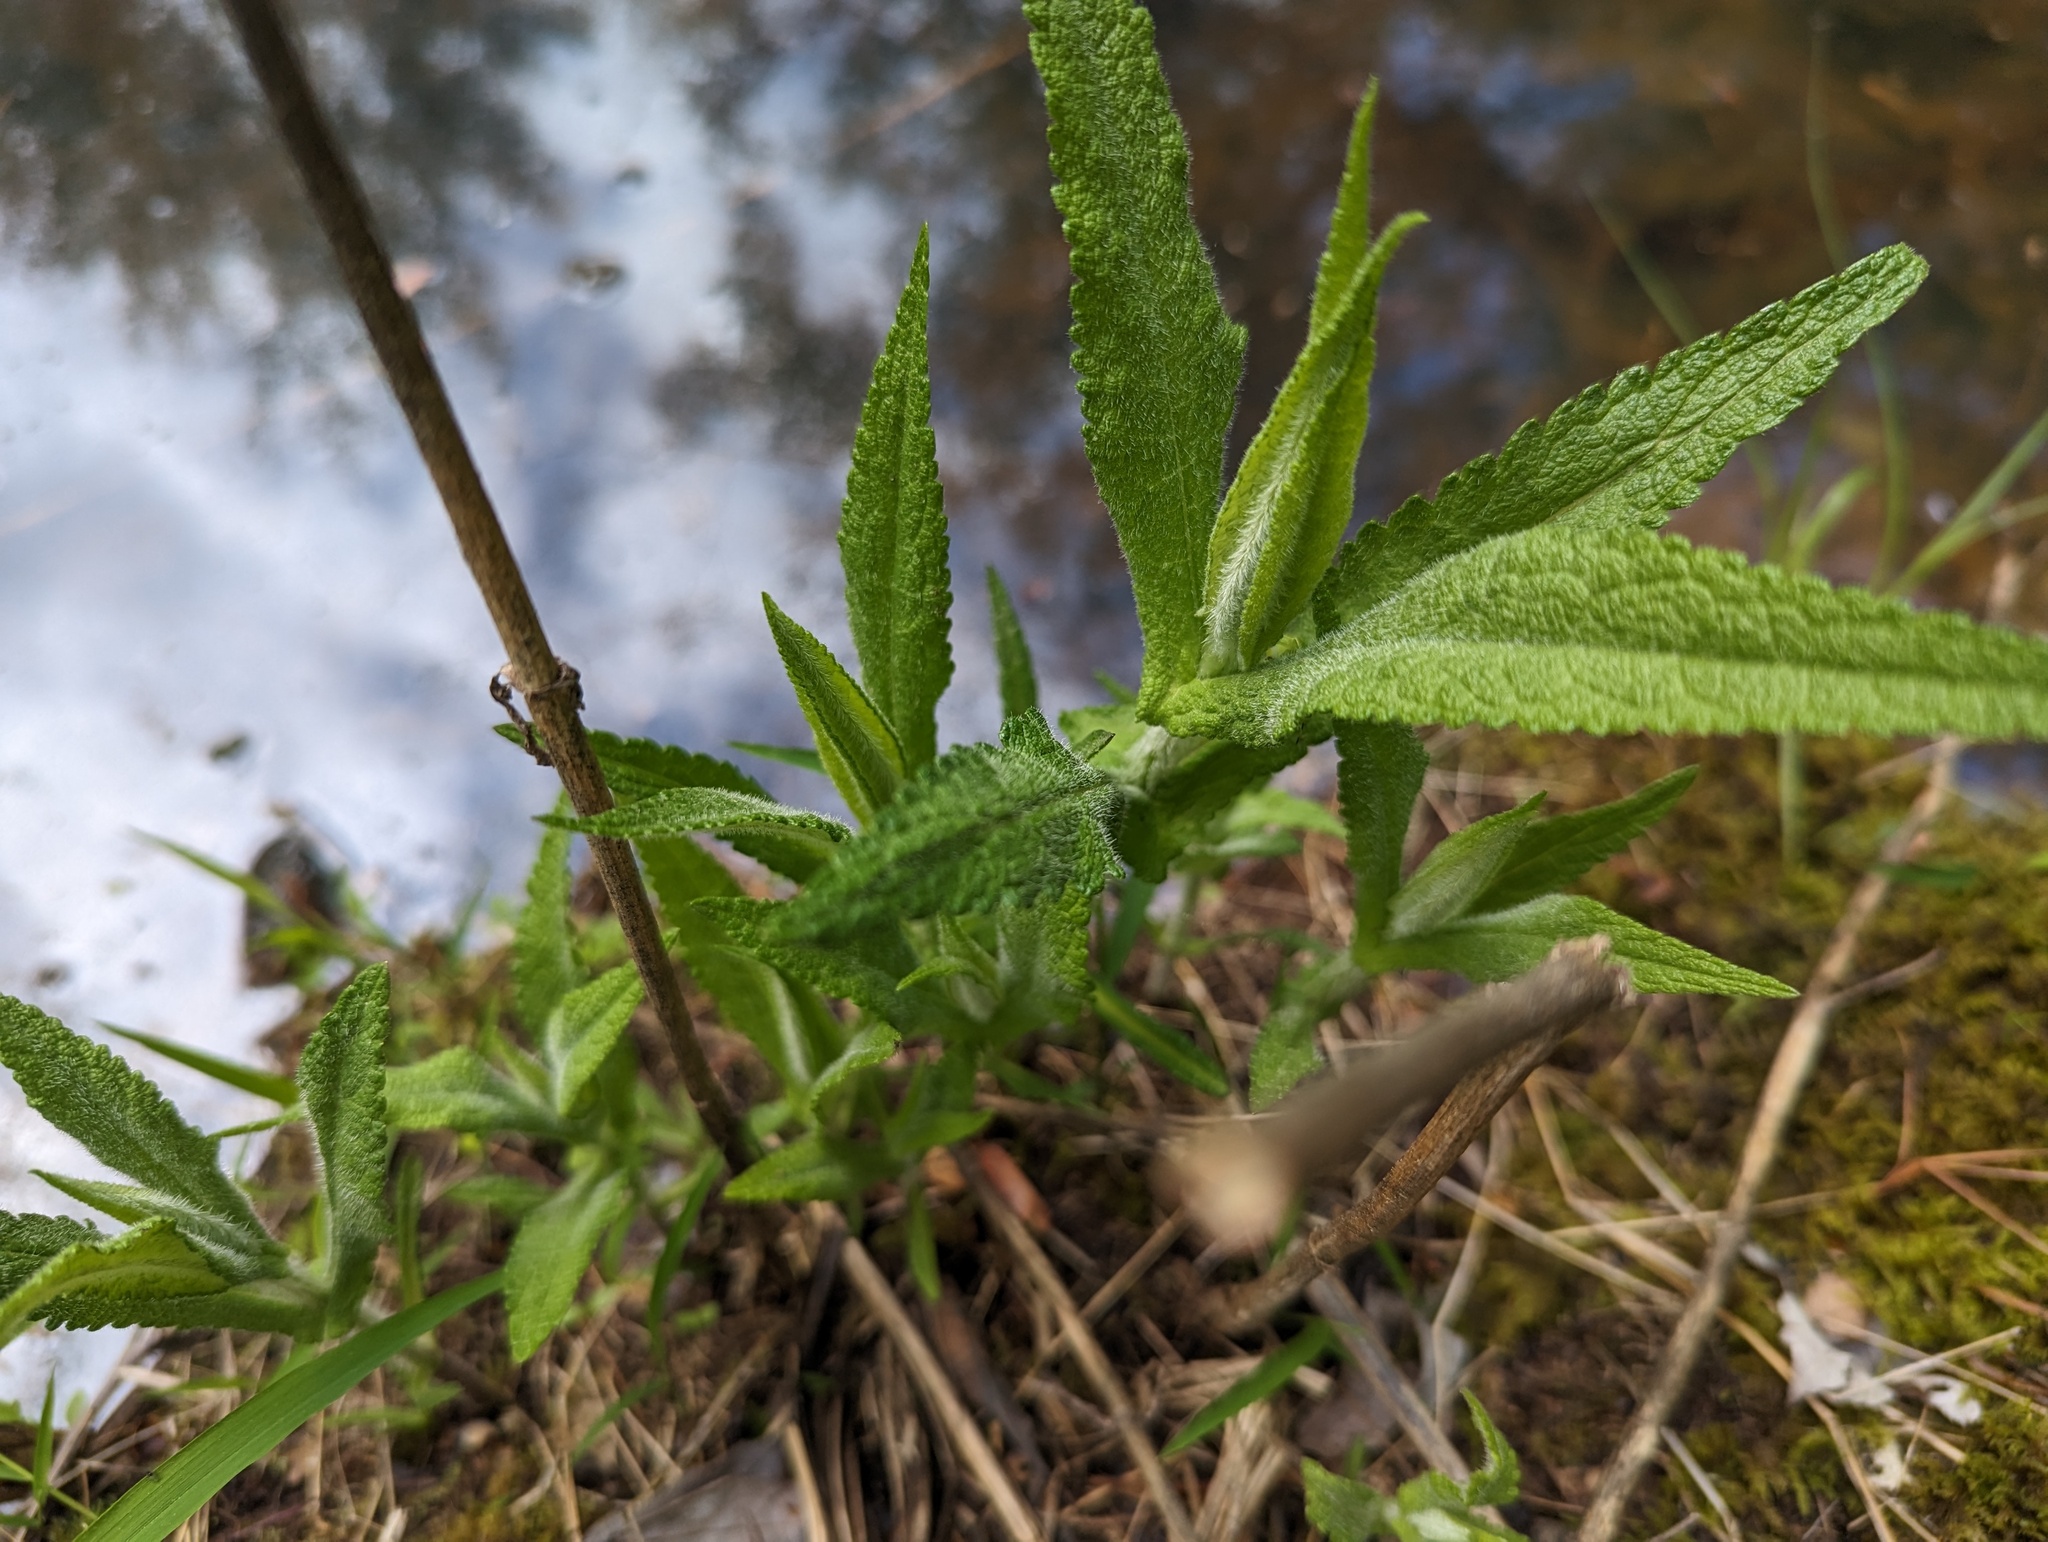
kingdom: Plantae
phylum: Tracheophyta
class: Magnoliopsida
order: Asterales
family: Asteraceae
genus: Eupatorium
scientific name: Eupatorium perfoliatum
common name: Boneset
